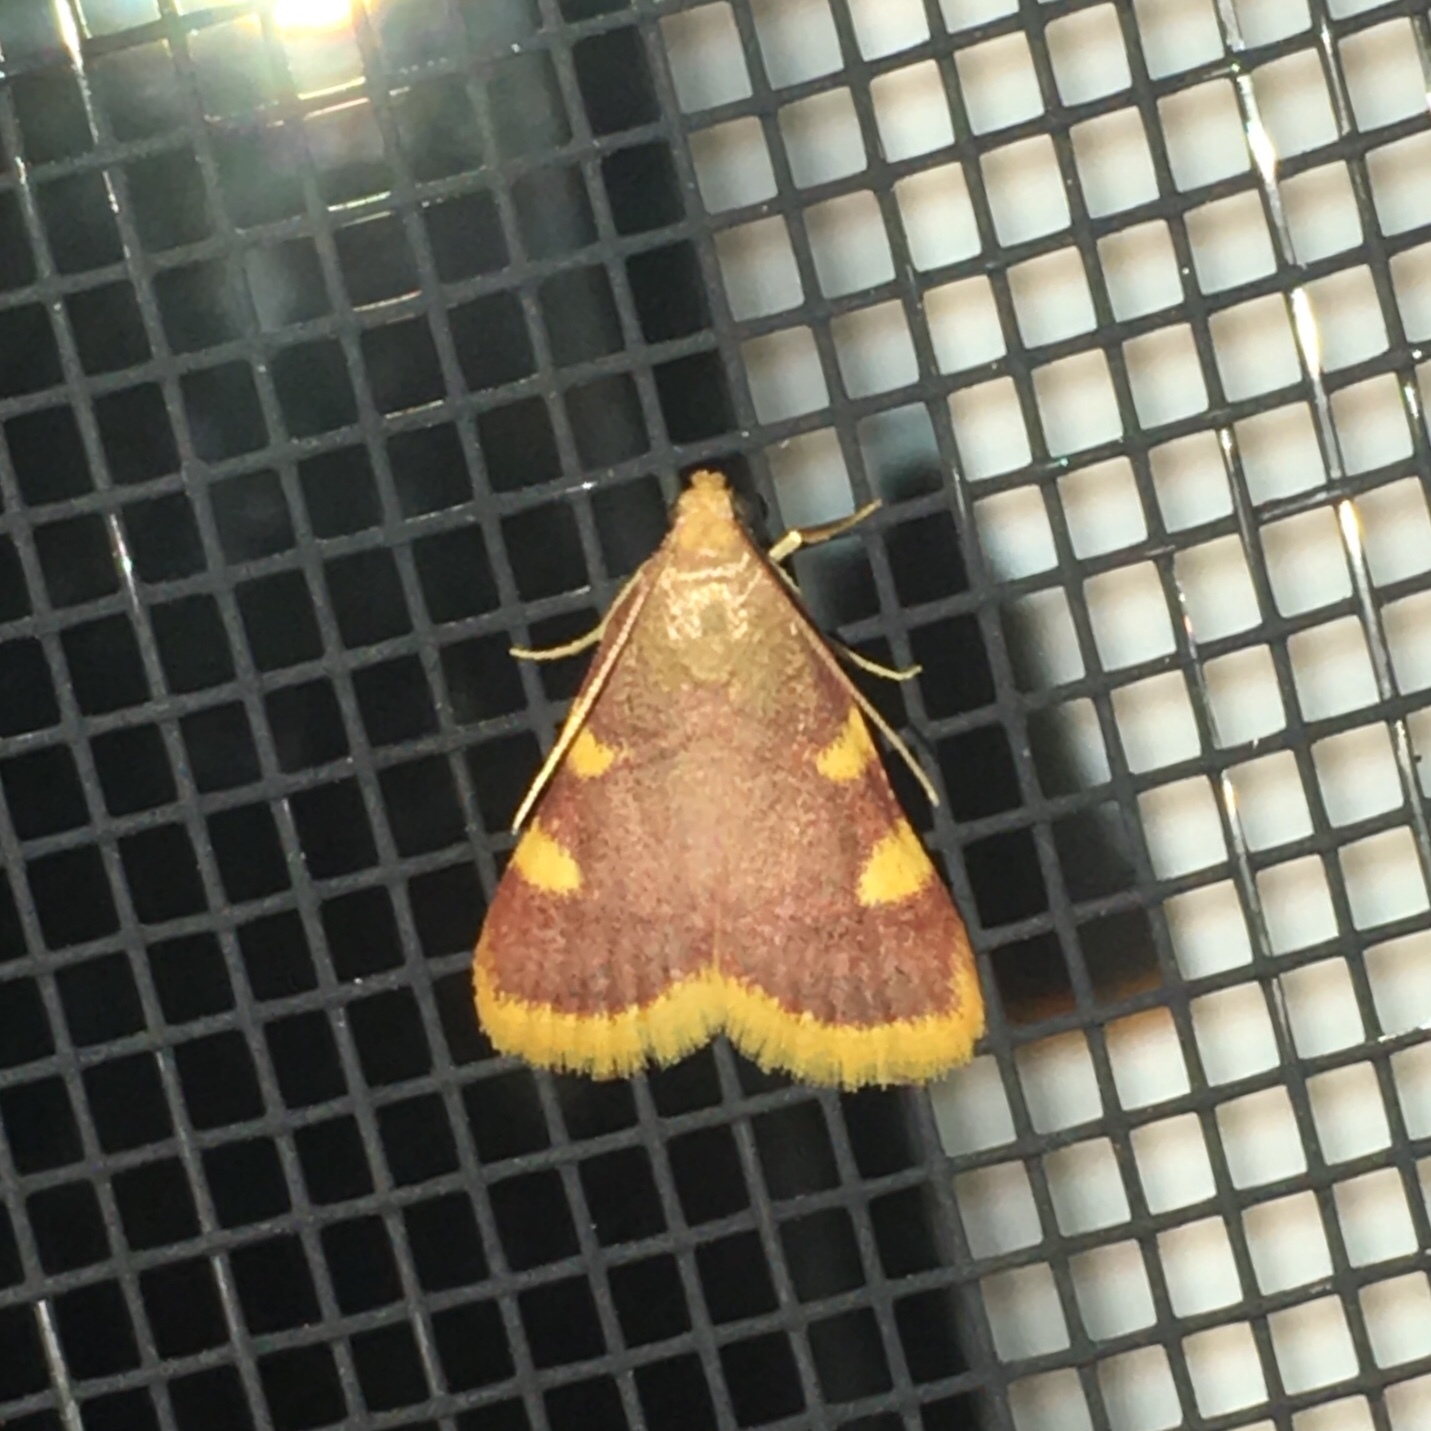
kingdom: Animalia
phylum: Arthropoda
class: Insecta
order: Lepidoptera
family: Pyralidae
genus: Hypsopygia
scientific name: Hypsopygia costalis
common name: Gold triangle
